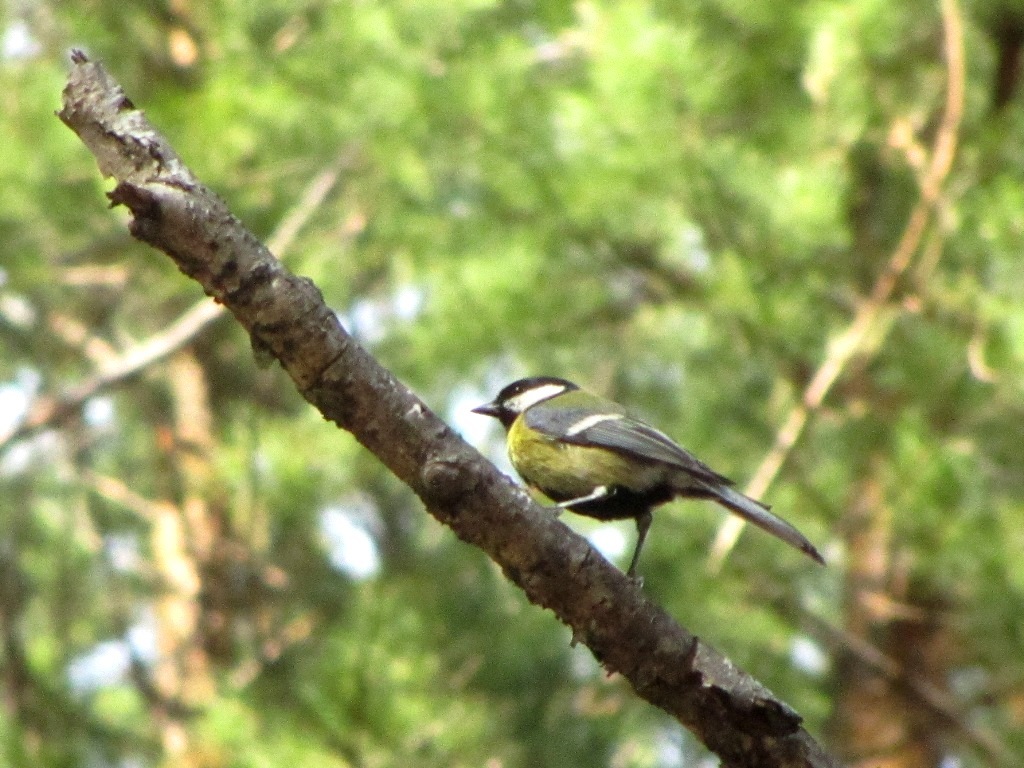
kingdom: Animalia
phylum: Chordata
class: Aves
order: Passeriformes
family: Paridae
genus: Parus
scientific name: Parus major
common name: Great tit
